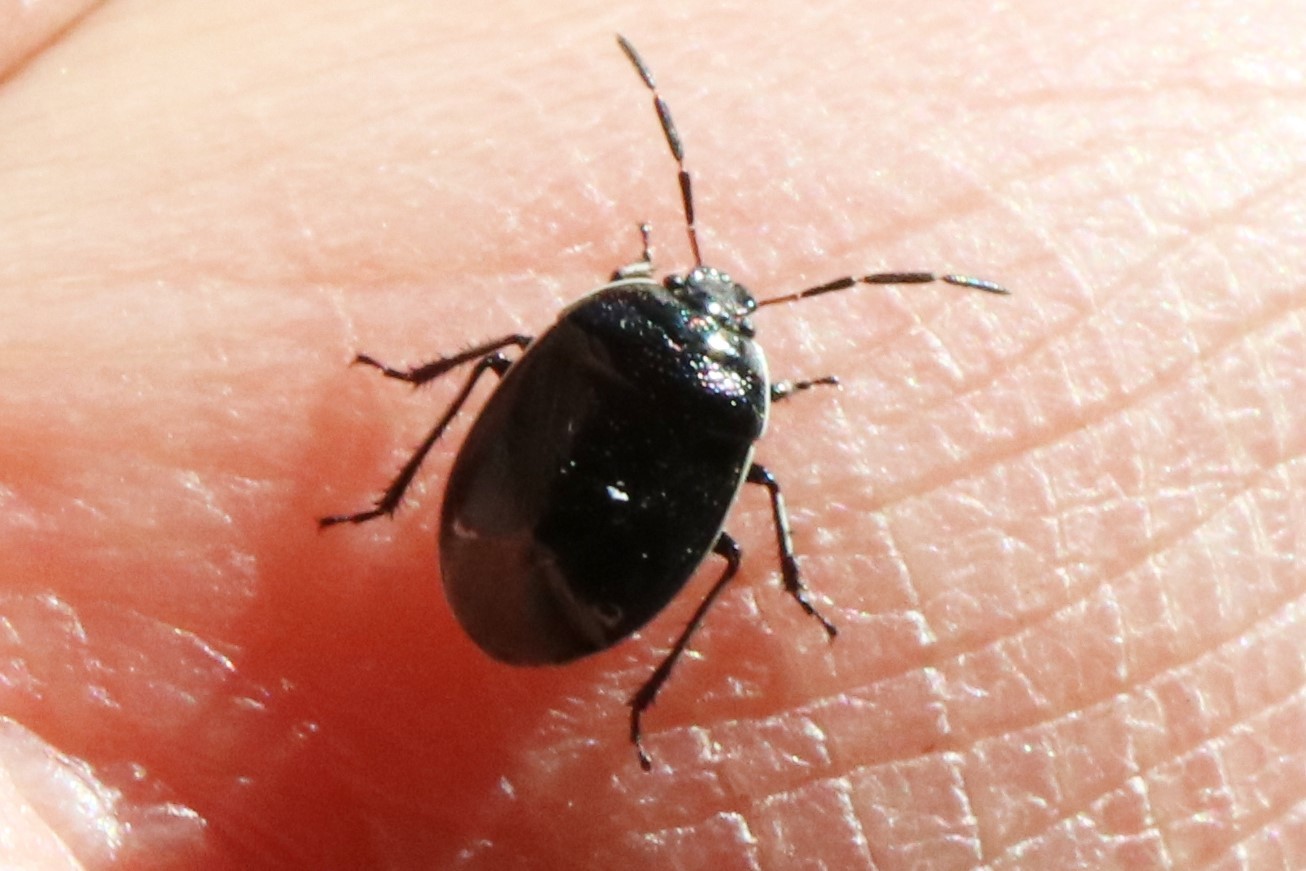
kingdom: Animalia
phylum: Arthropoda
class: Insecta
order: Hemiptera
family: Cydnidae
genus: Sehirus
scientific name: Sehirus cinctus
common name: White-margined burrower bug
